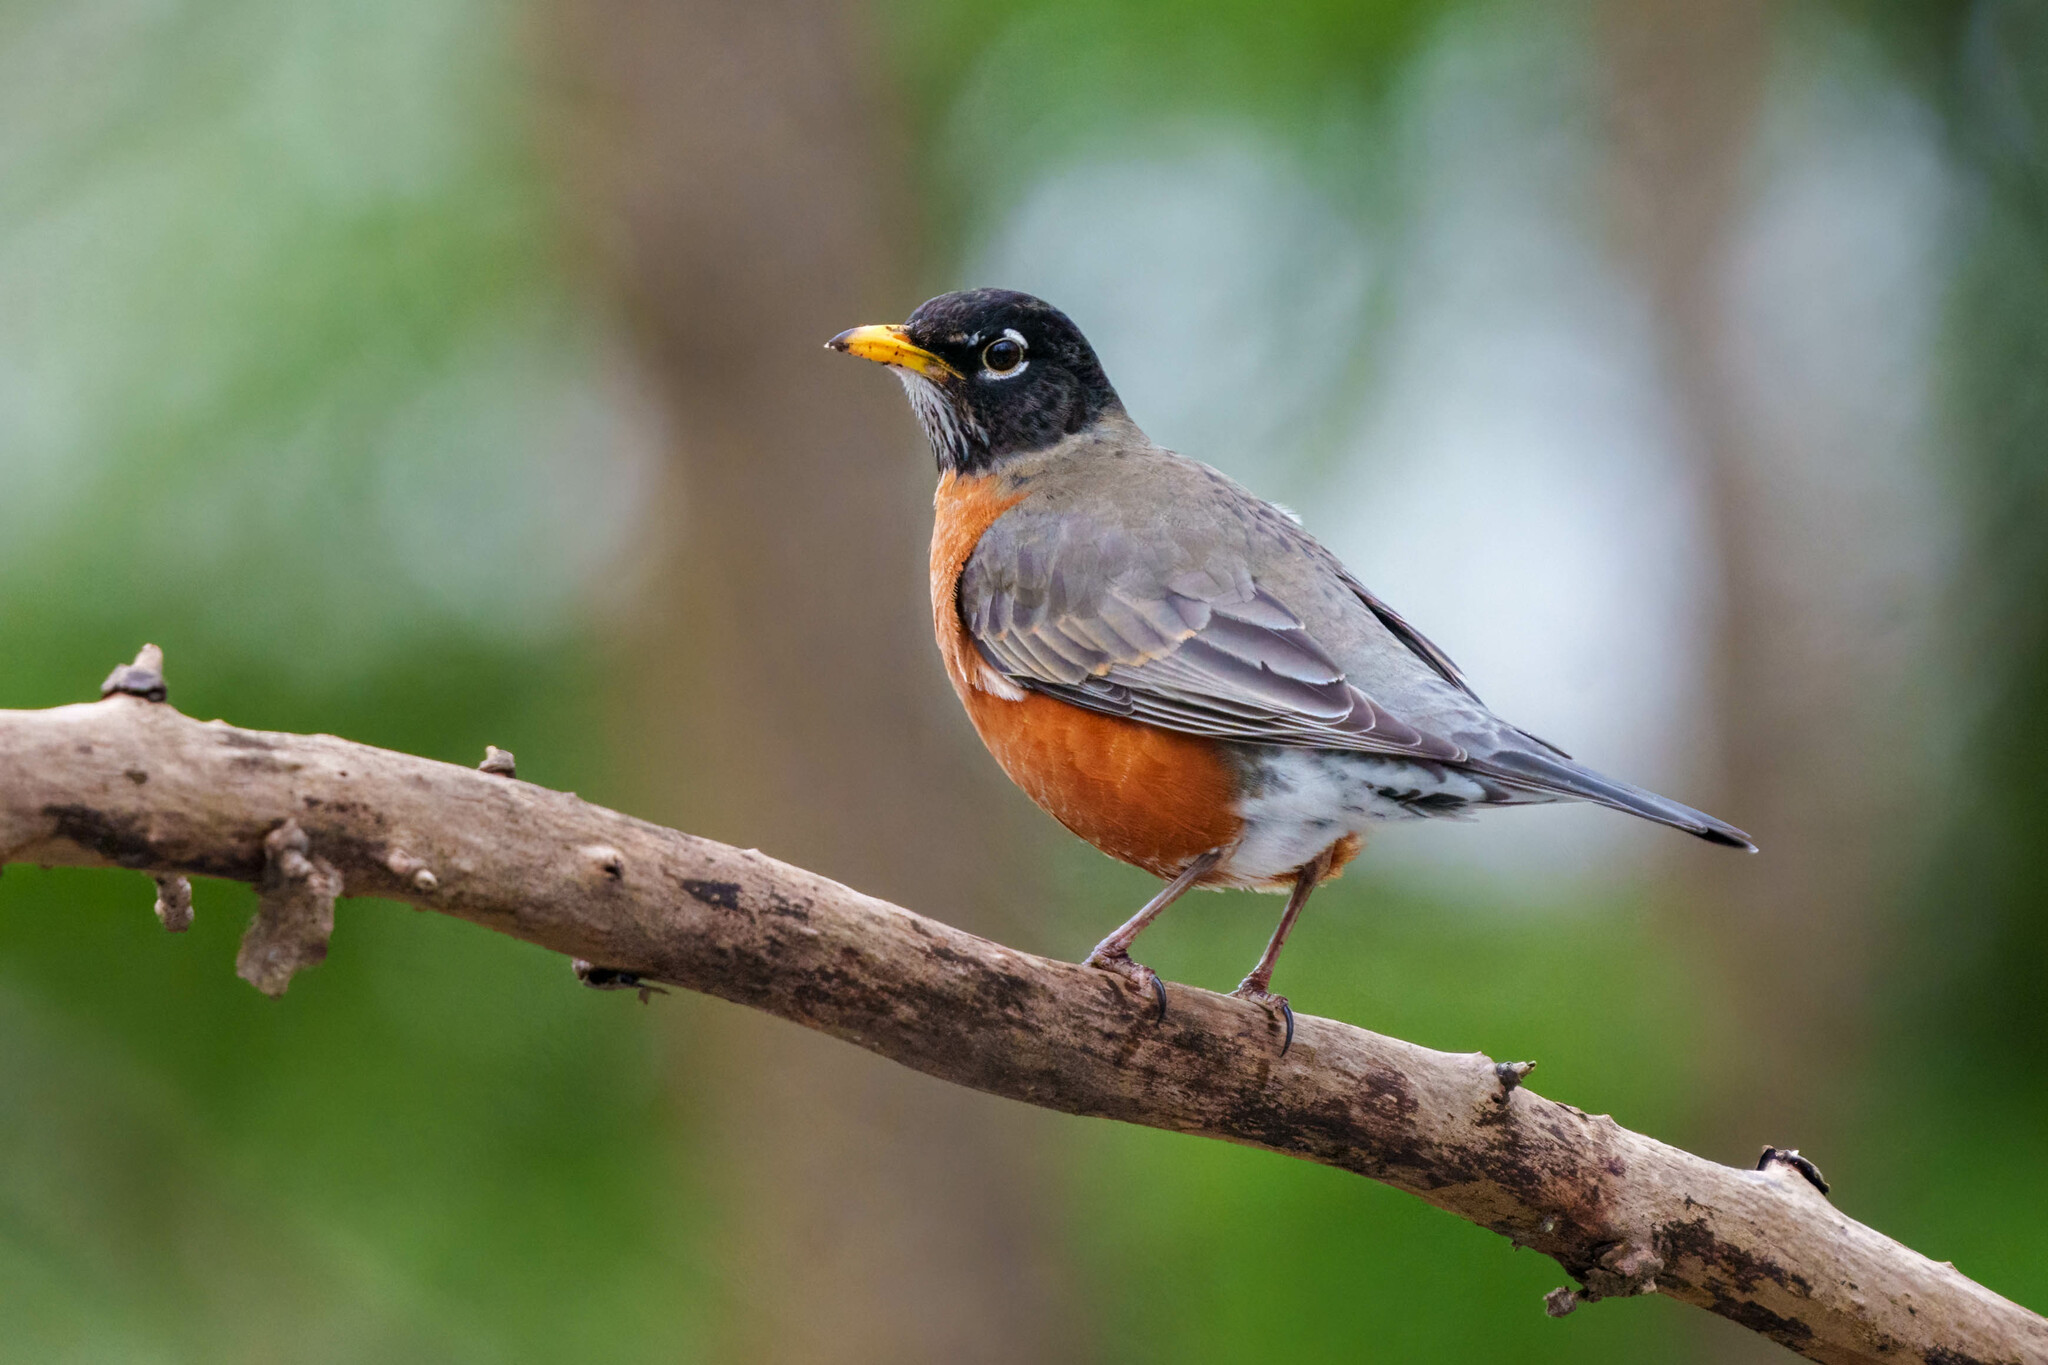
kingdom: Animalia
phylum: Chordata
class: Aves
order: Passeriformes
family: Turdidae
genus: Turdus
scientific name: Turdus migratorius
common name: American robin
